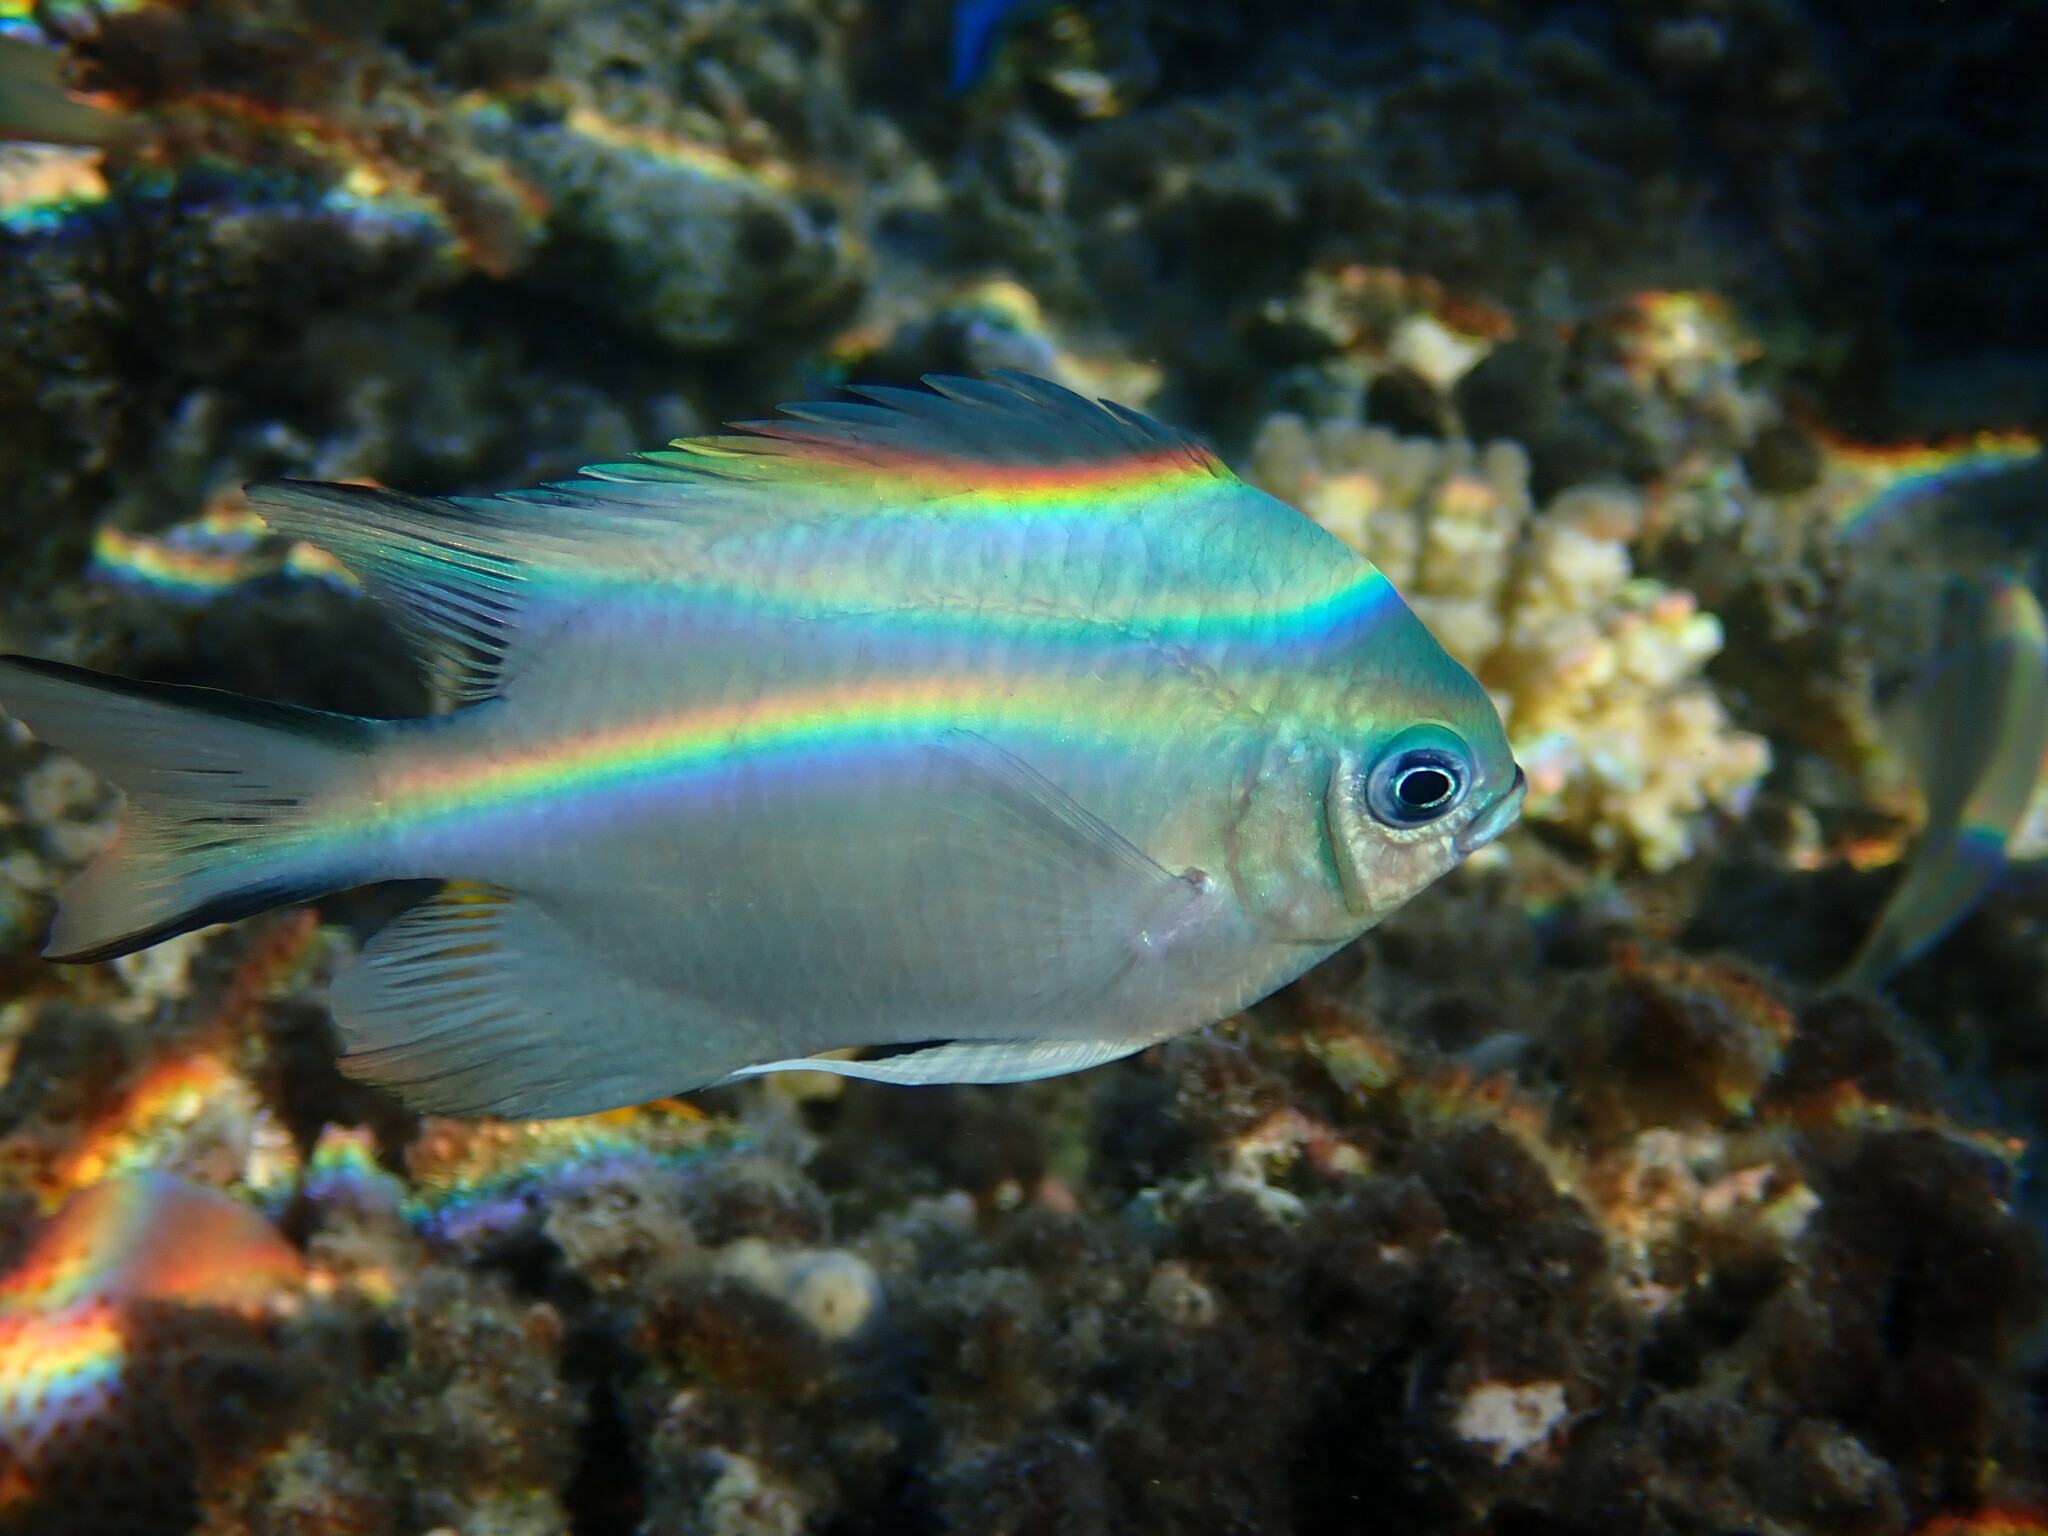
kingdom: Animalia
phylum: Chordata
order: Perciformes
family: Pomacentridae
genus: Amblyglyphidodon
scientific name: Amblyglyphidodon indicus
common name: Maldives damselfish
